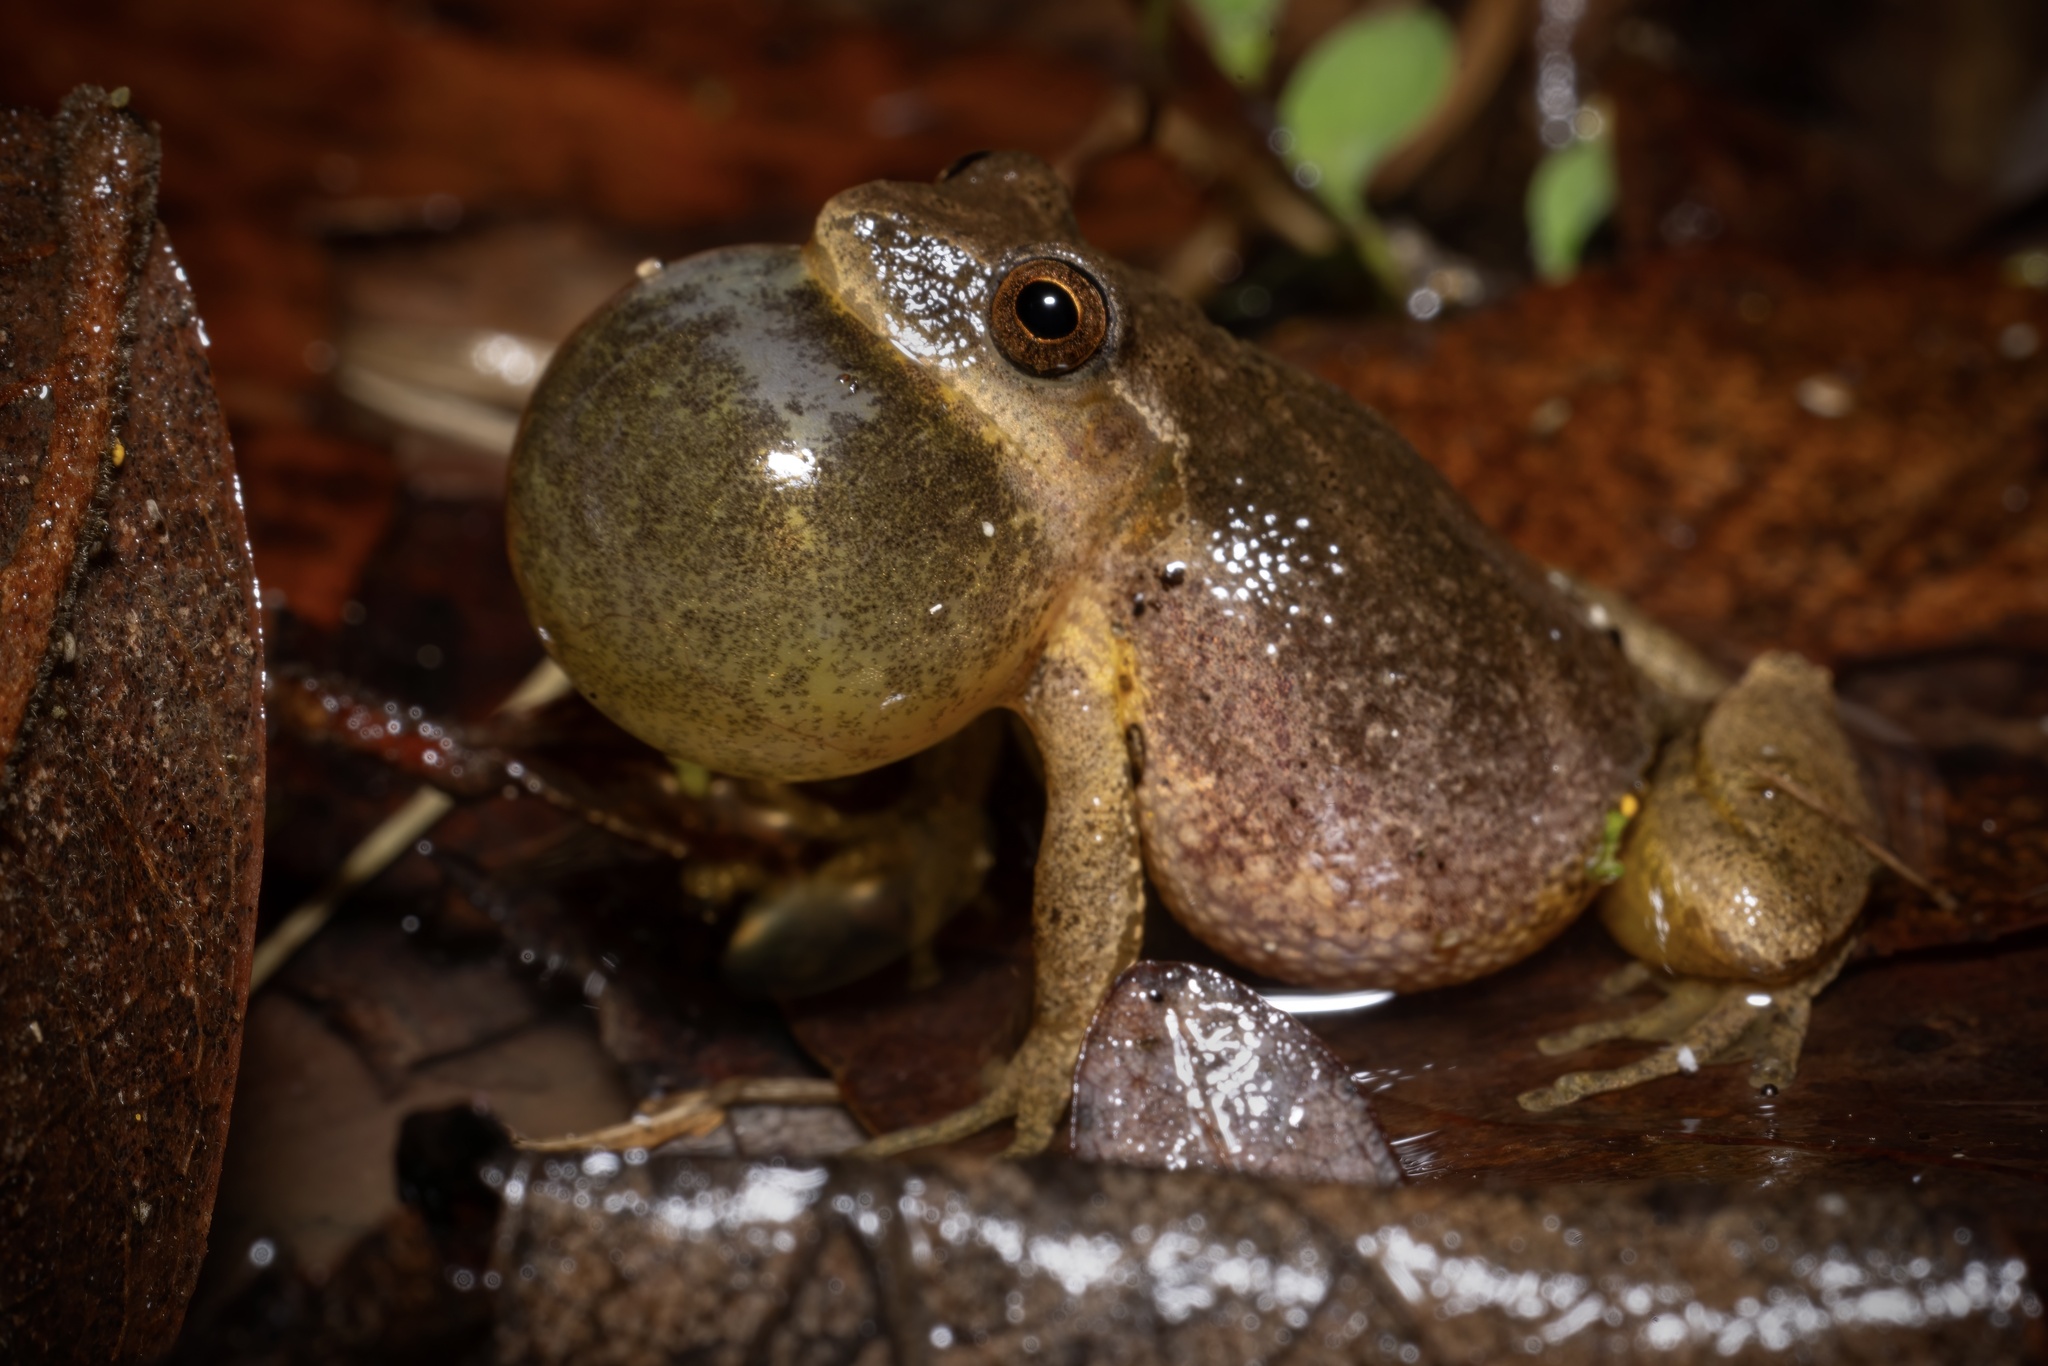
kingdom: Animalia
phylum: Chordata
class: Amphibia
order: Anura
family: Hylidae
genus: Pseudacris
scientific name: Pseudacris crucifer
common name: Spring peeper
